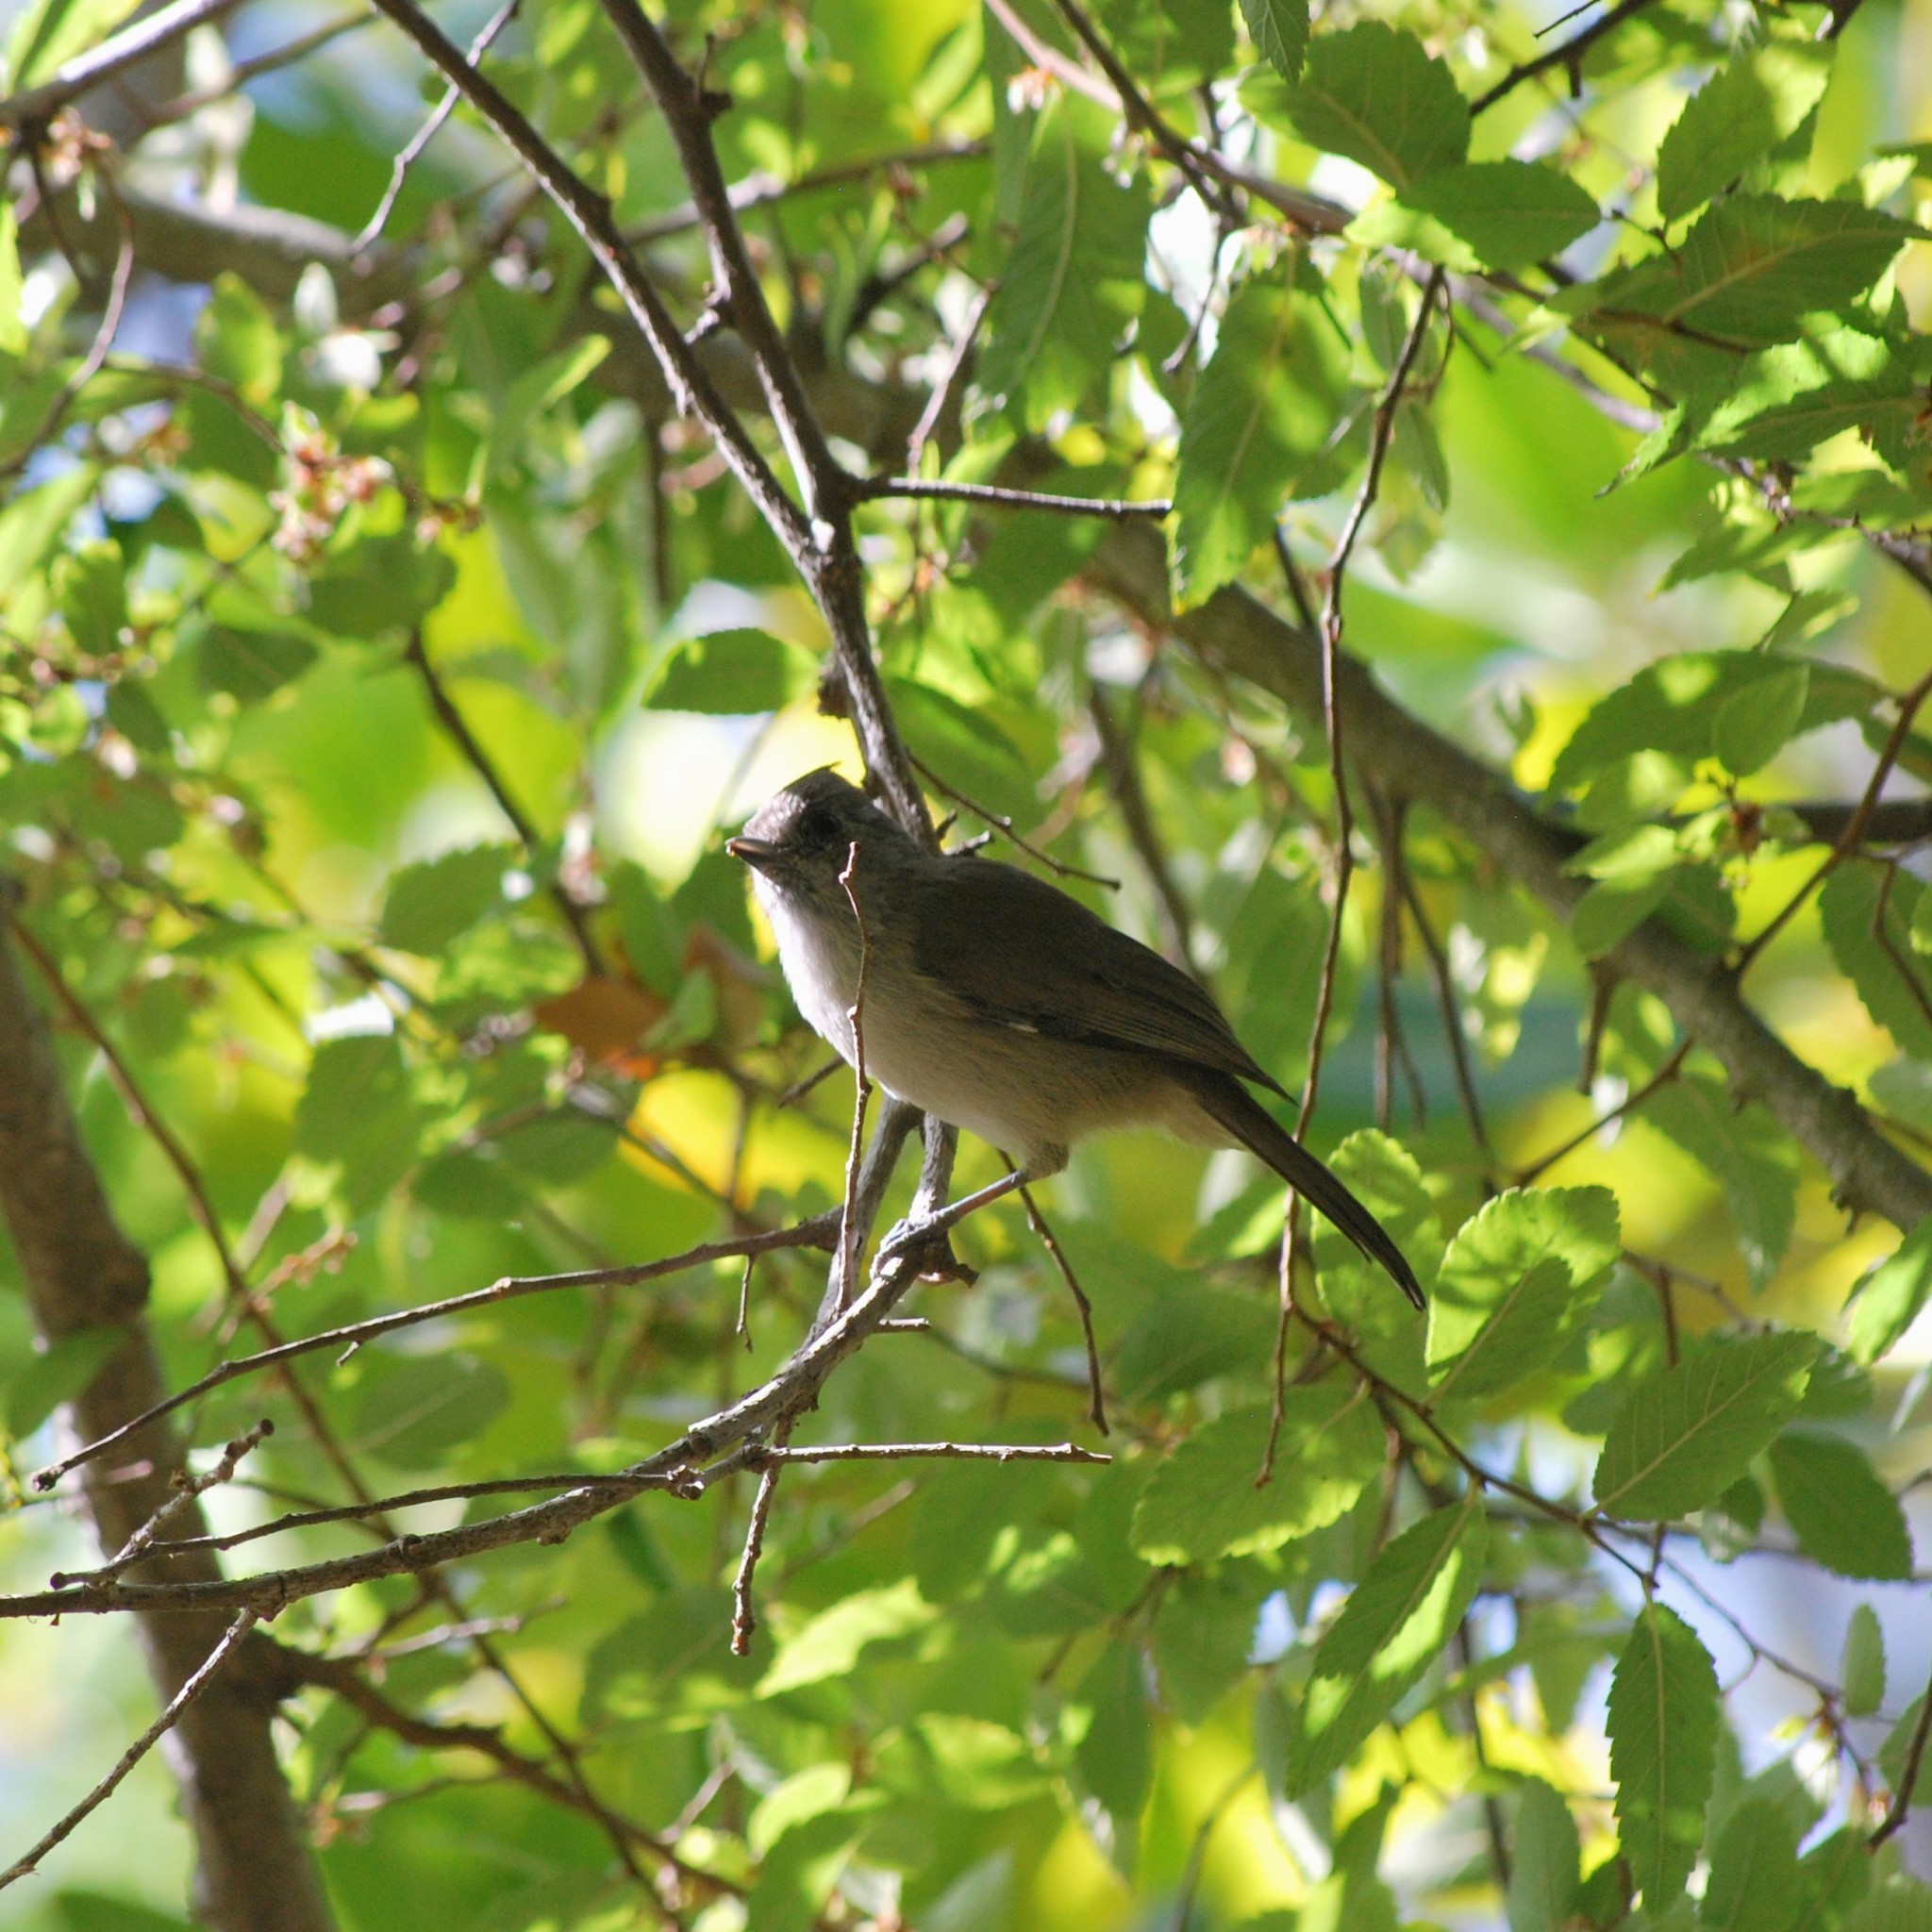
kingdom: Animalia
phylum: Chordata
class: Aves
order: Passeriformes
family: Paridae
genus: Baeolophus
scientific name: Baeolophus inornatus
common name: Oak titmouse
